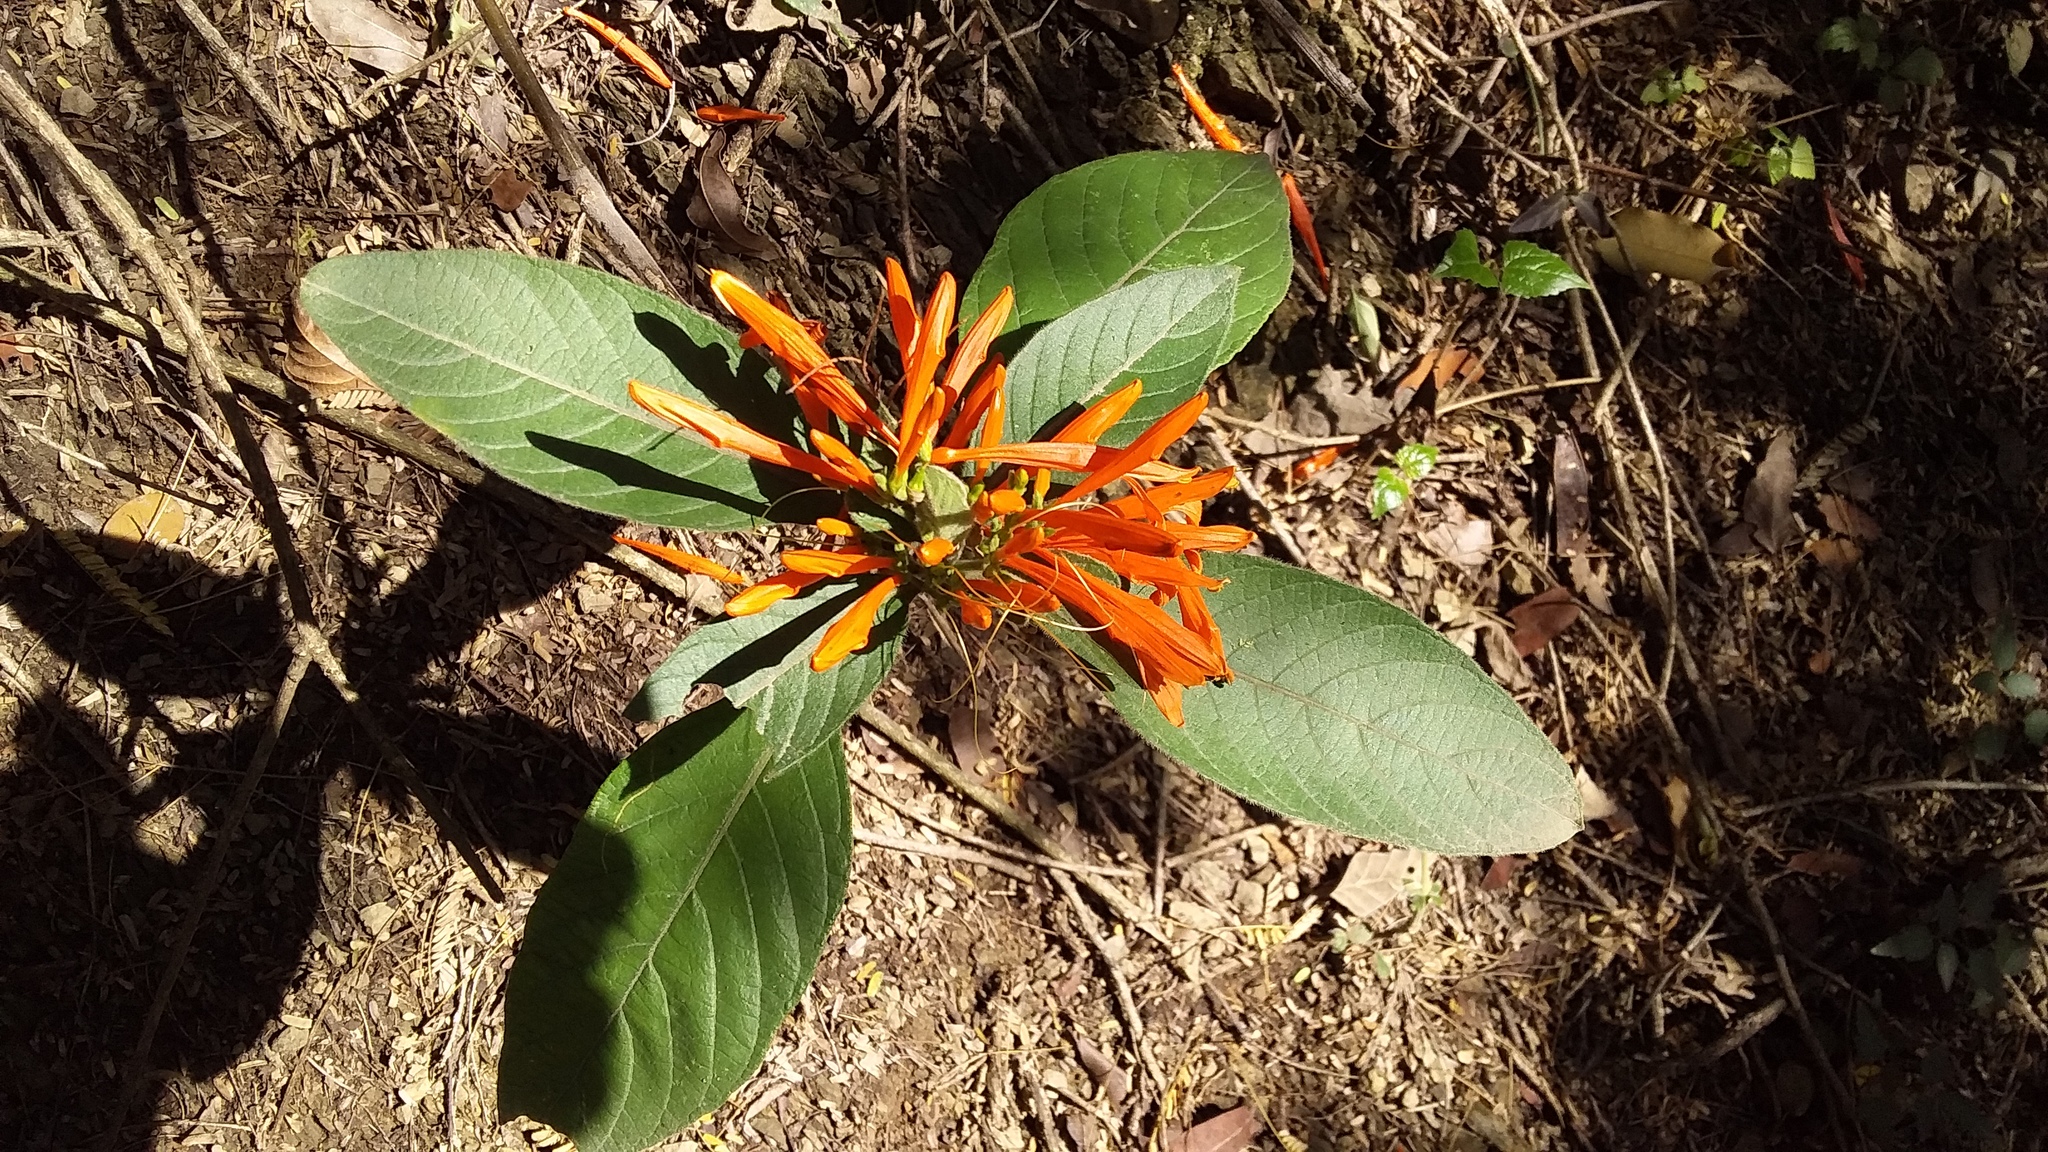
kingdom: Plantae
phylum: Tracheophyta
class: Magnoliopsida
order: Lamiales
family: Acanthaceae
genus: Justicia
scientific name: Justicia spicigera
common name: Mohintli
